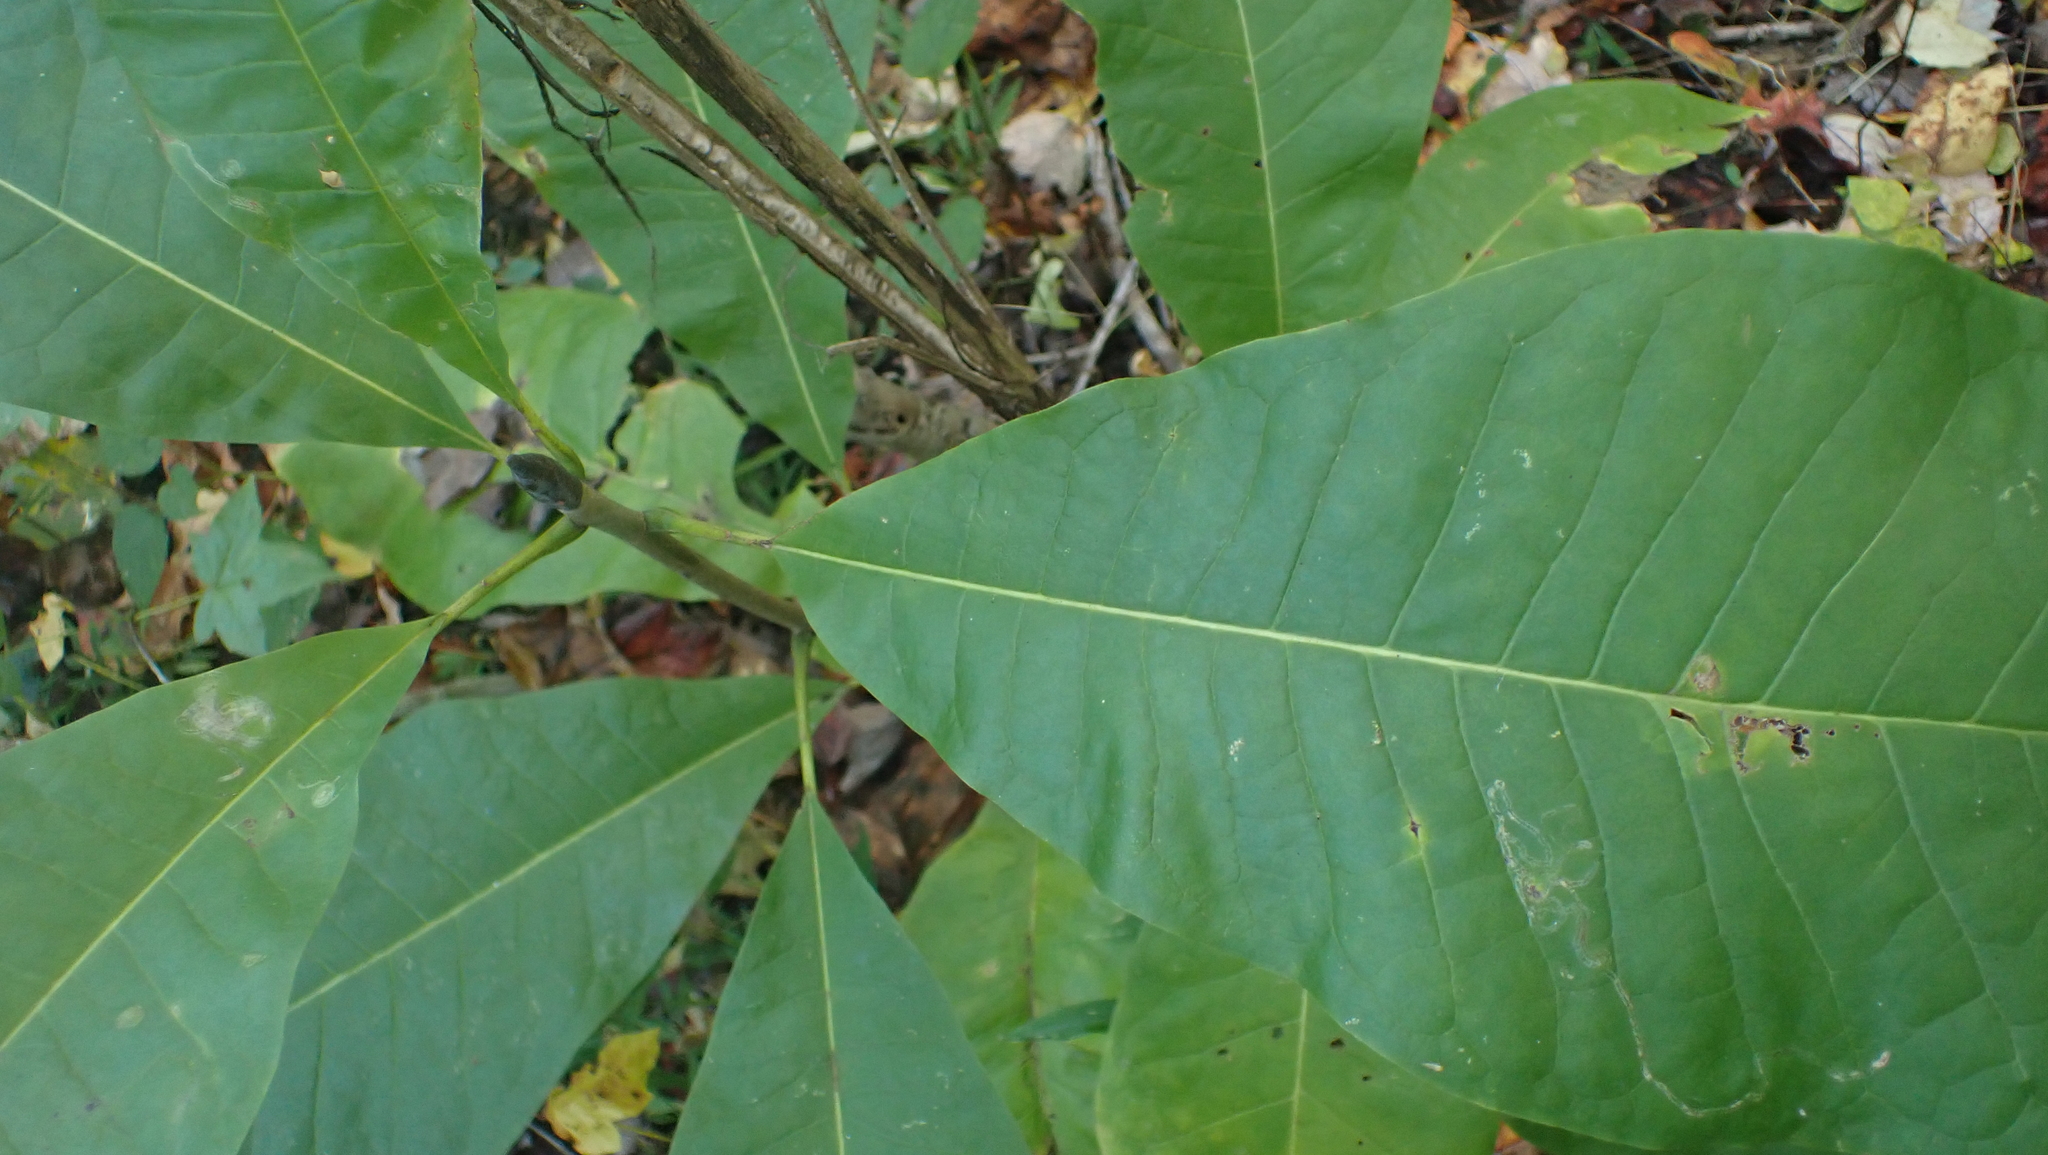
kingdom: Plantae
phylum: Tracheophyta
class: Magnoliopsida
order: Magnoliales
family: Magnoliaceae
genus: Magnolia
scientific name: Magnolia tripetala
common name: Umbrella magnolia
